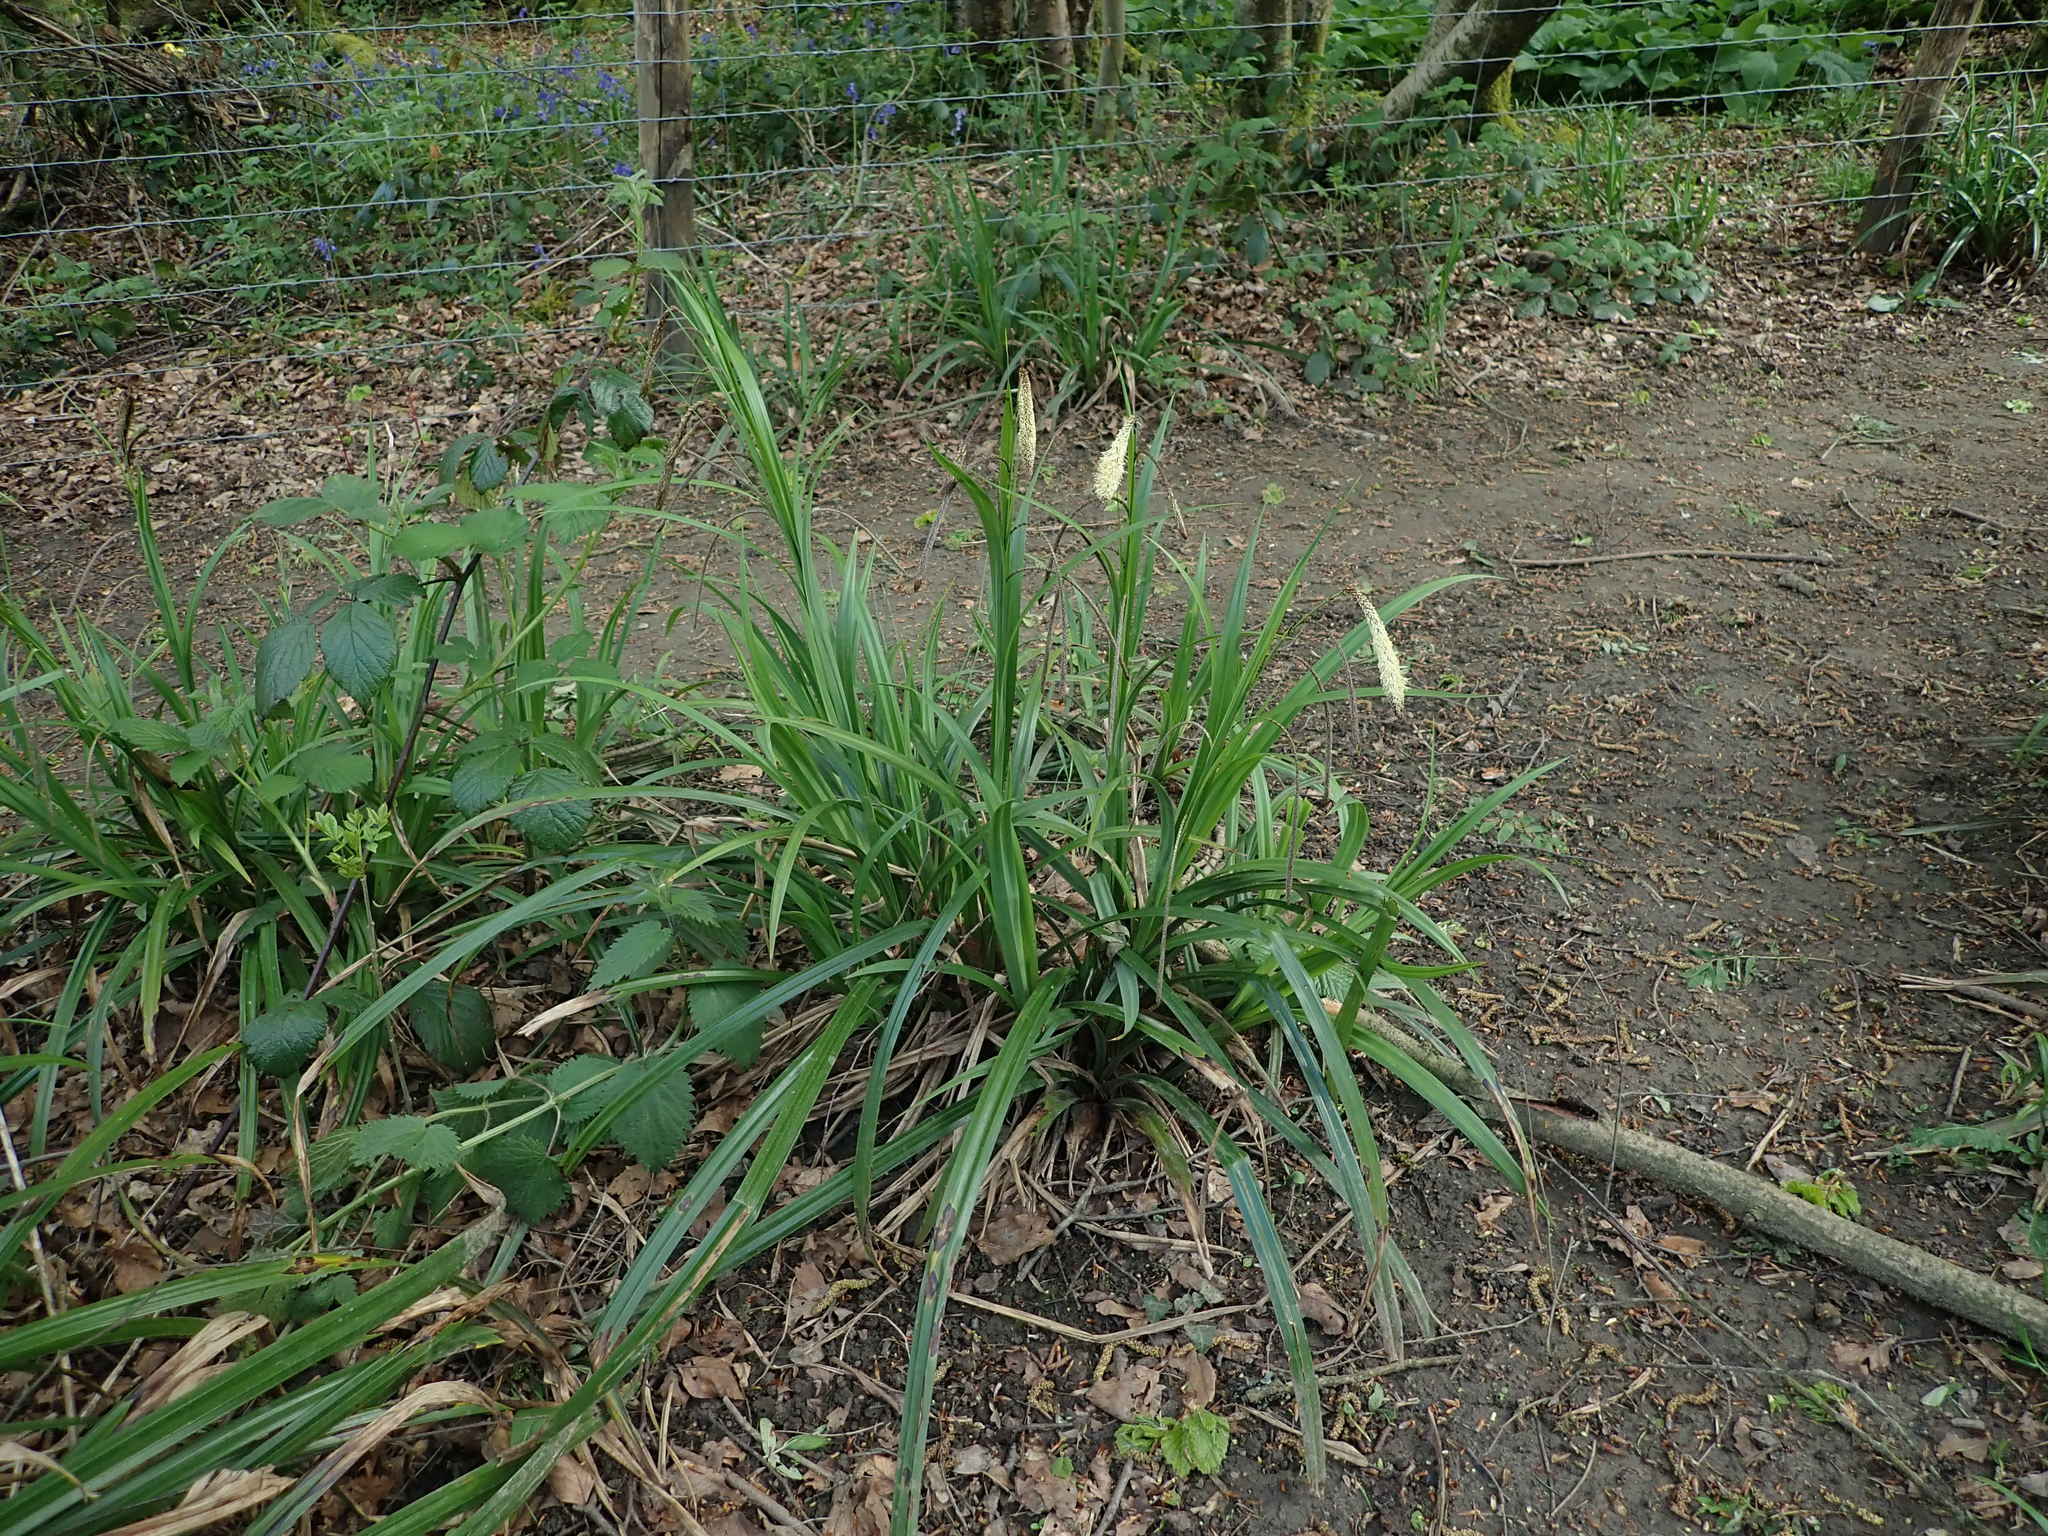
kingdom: Plantae
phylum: Tracheophyta
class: Liliopsida
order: Poales
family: Cyperaceae
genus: Carex
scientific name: Carex pendula
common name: Pendulous sedge
